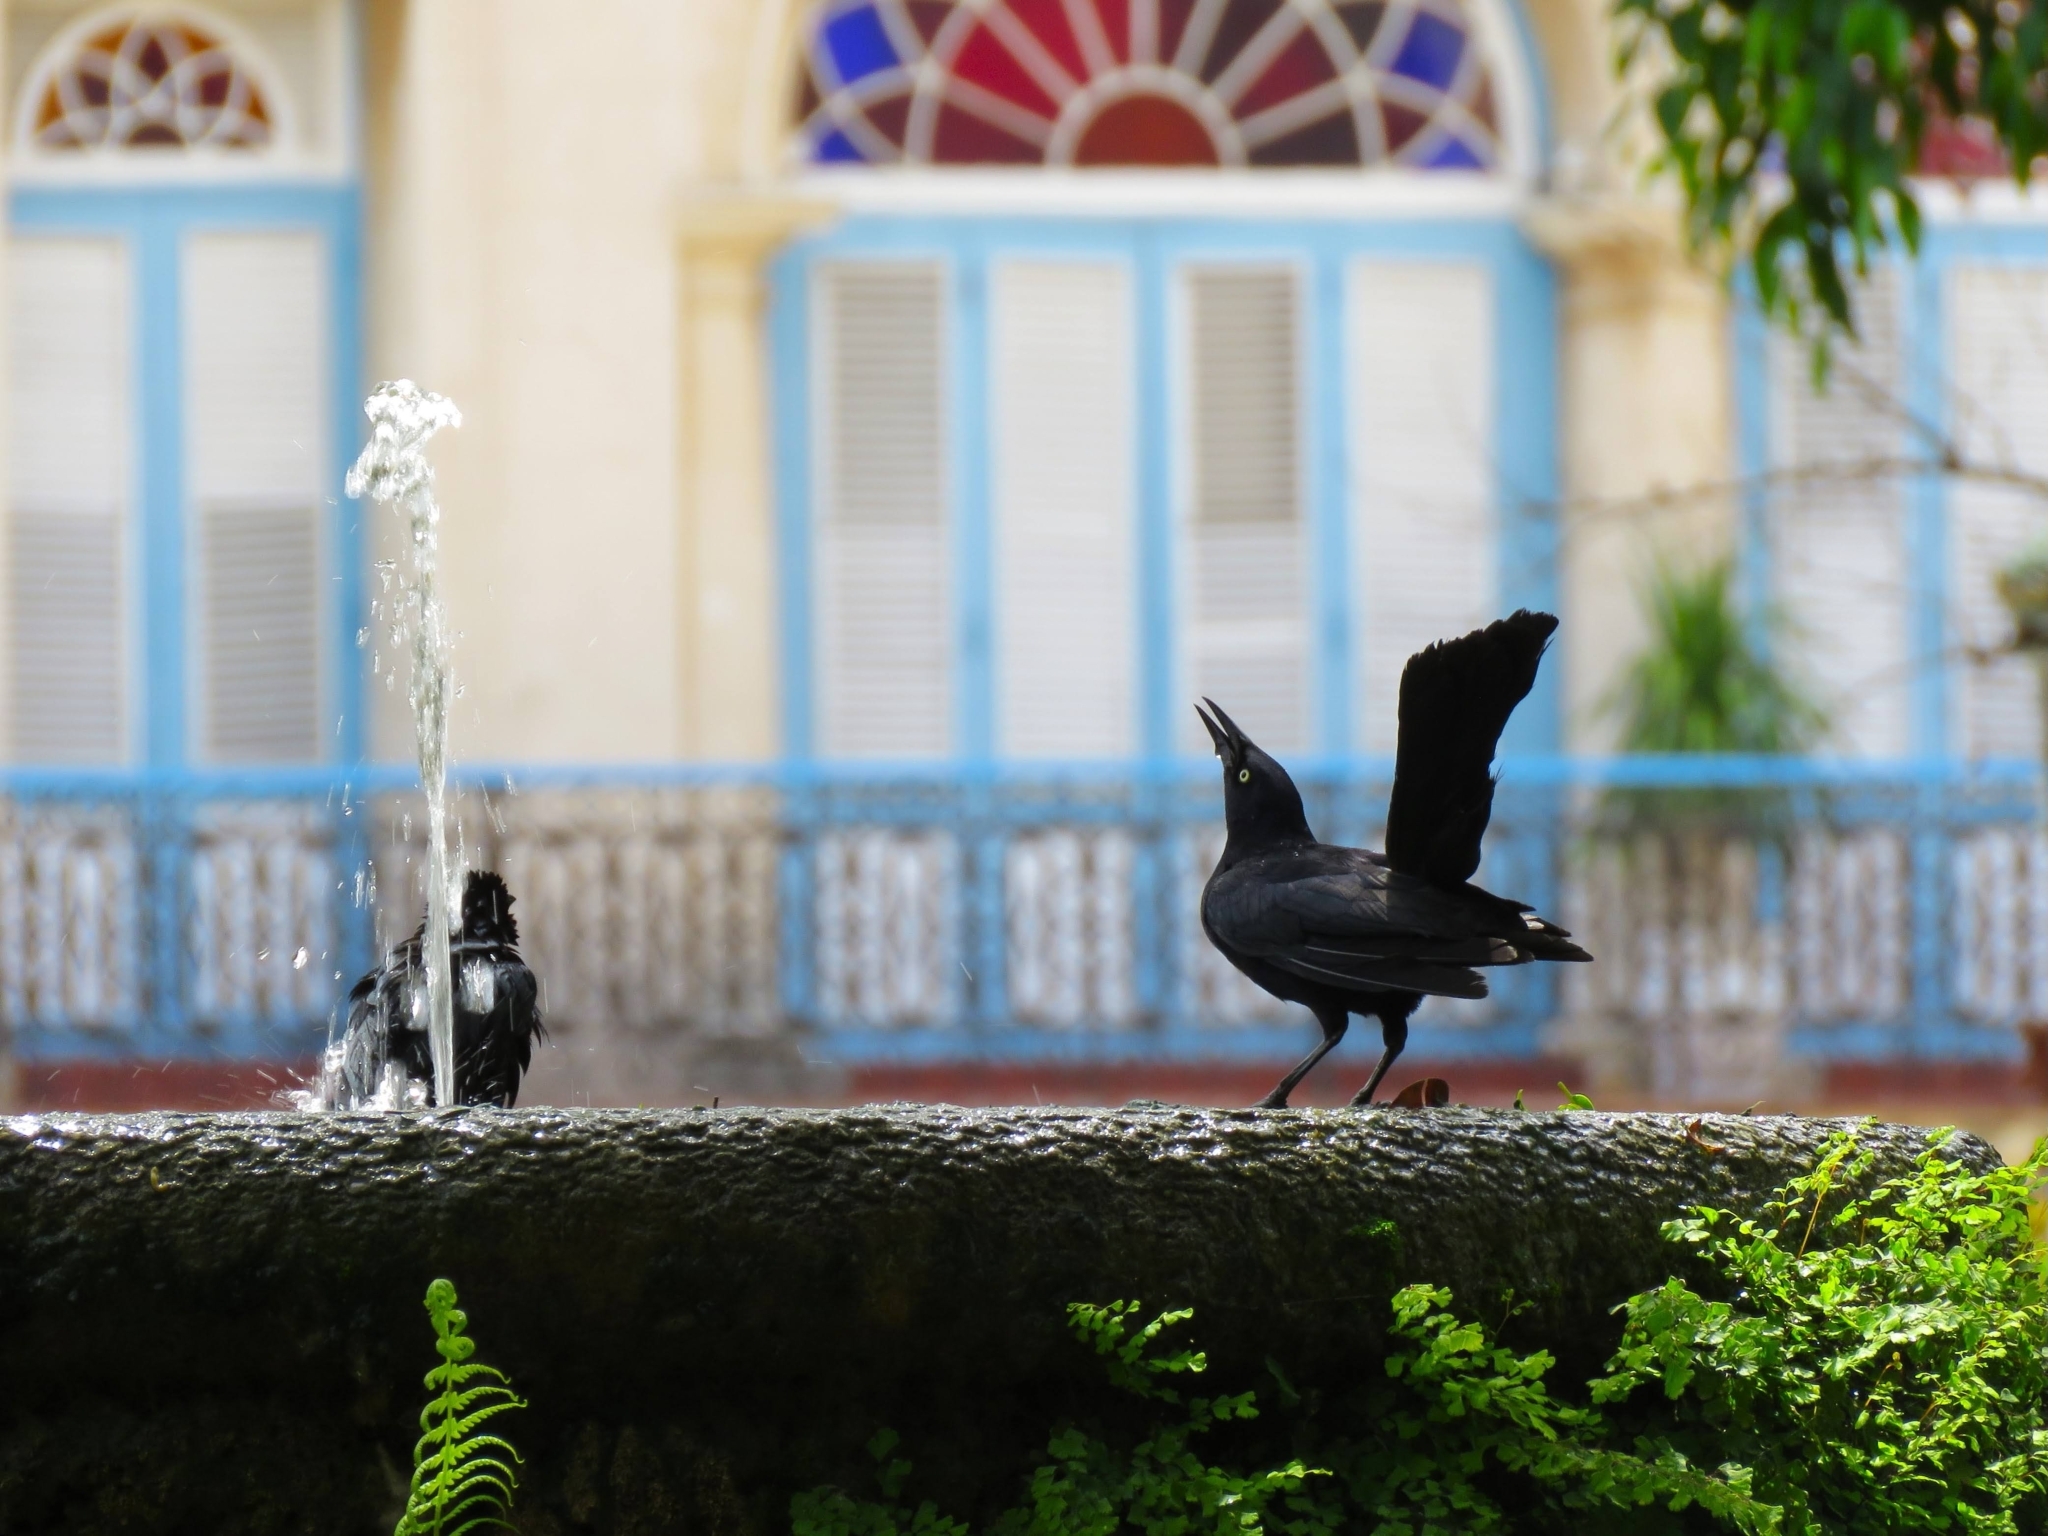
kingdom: Animalia
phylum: Chordata
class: Aves
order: Passeriformes
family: Icteridae
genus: Quiscalus
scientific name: Quiscalus mexicanus
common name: Great-tailed grackle
